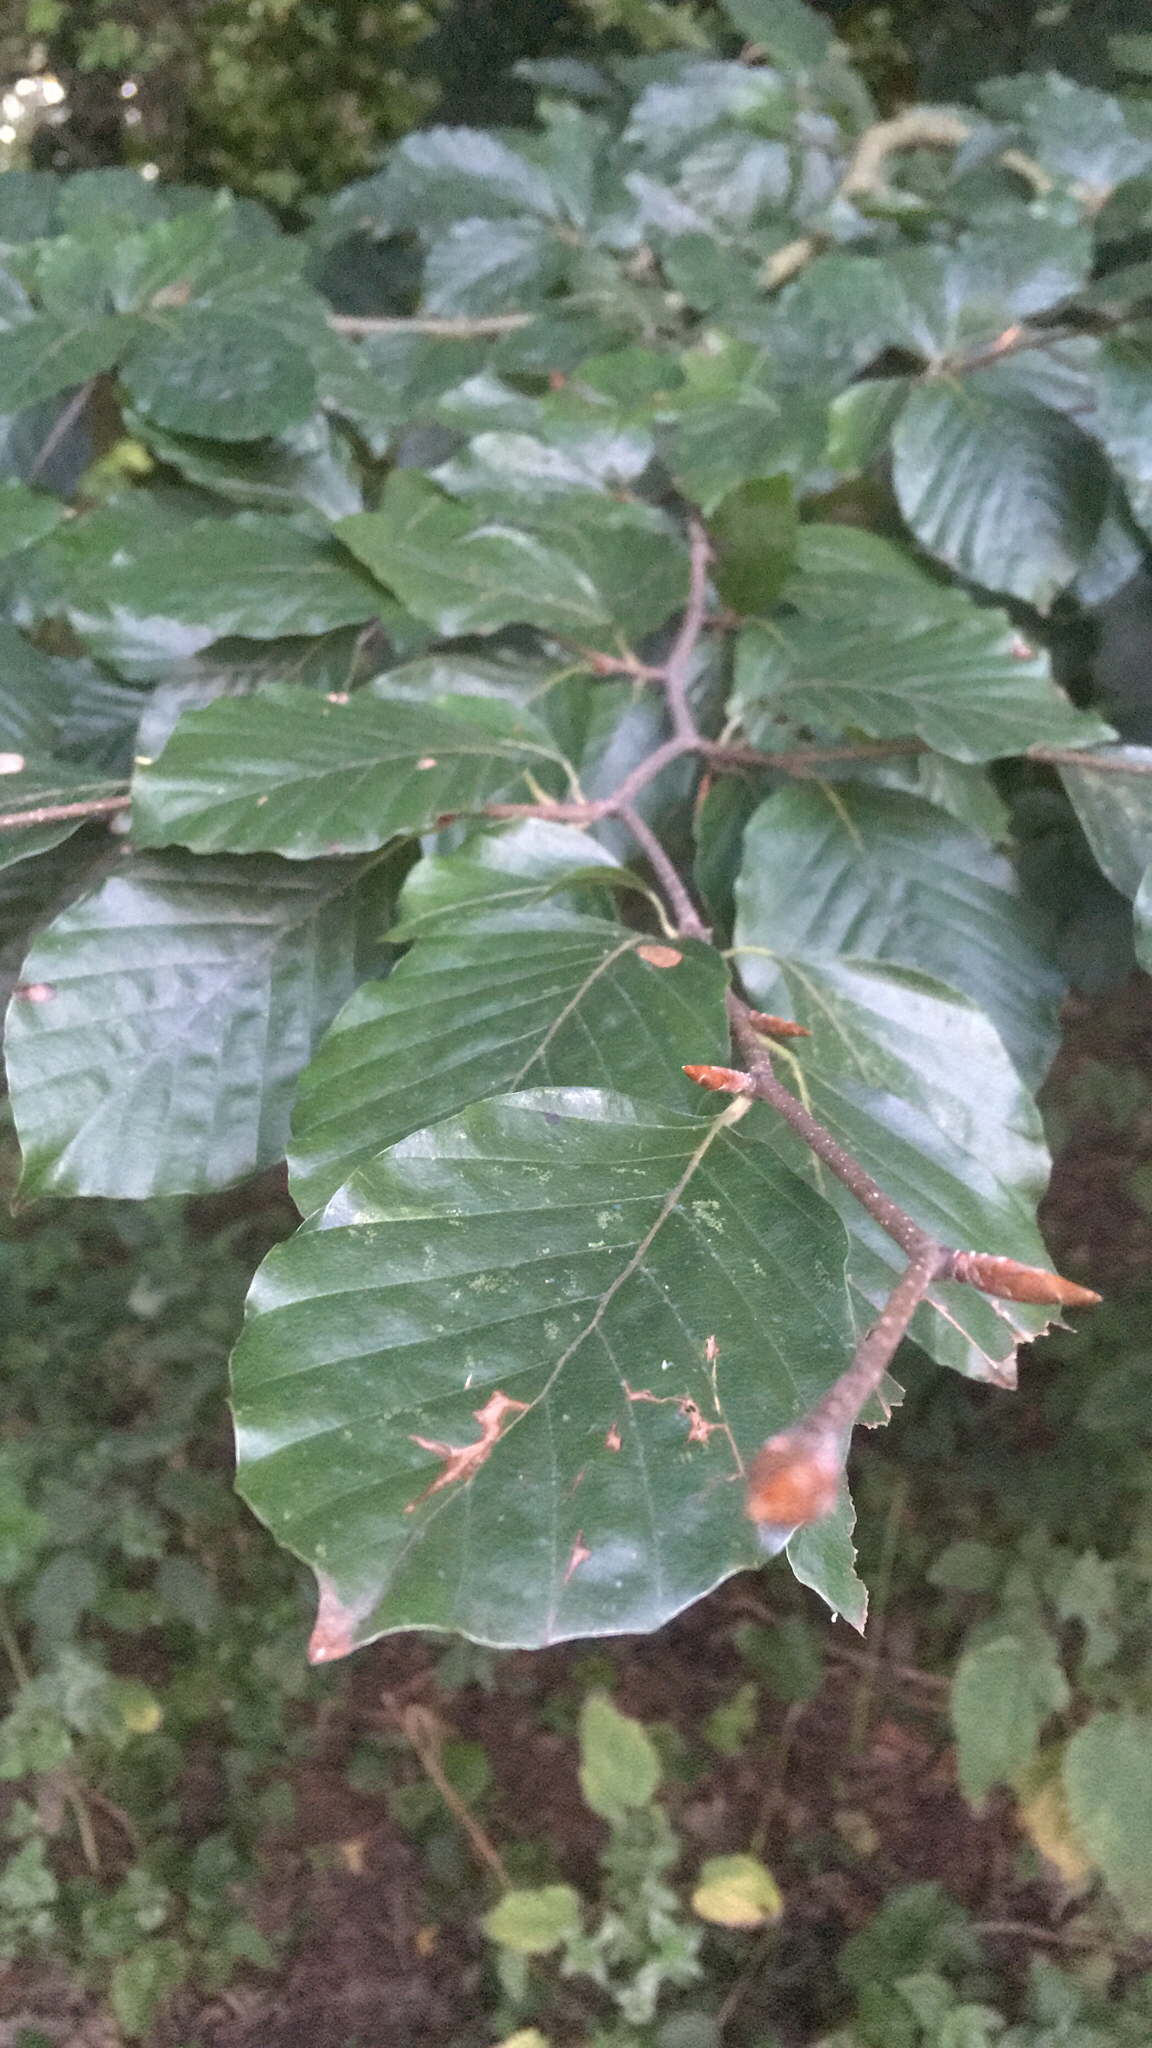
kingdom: Plantae
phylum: Tracheophyta
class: Magnoliopsida
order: Fagales
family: Fagaceae
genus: Fagus
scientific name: Fagus sylvatica
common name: Beech
